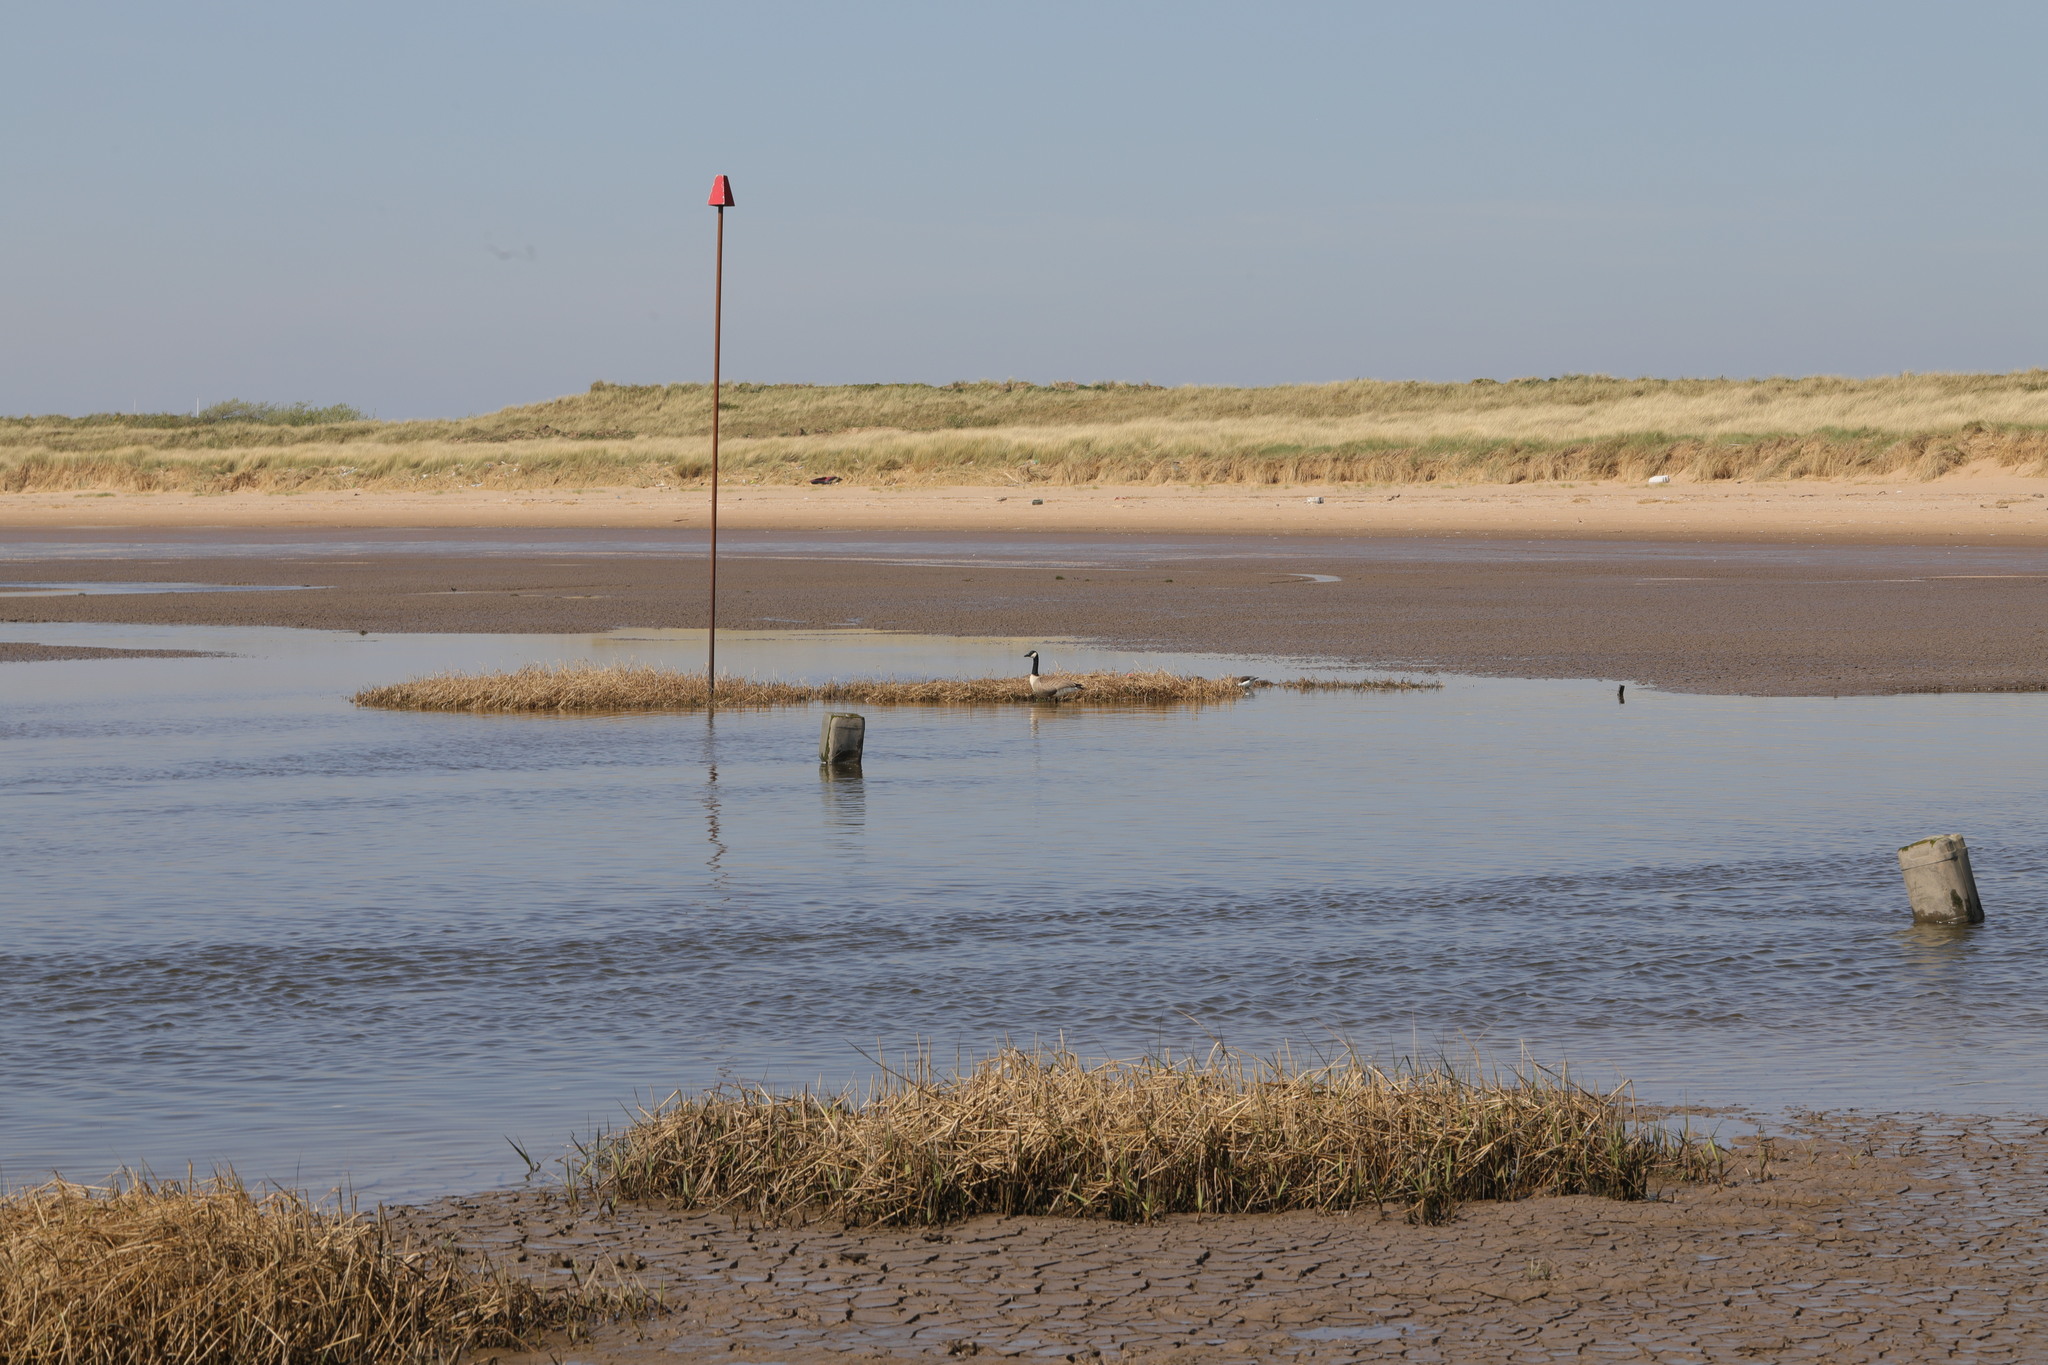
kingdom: Animalia
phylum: Chordata
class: Aves
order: Anseriformes
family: Anatidae
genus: Branta
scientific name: Branta canadensis
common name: Canada goose
